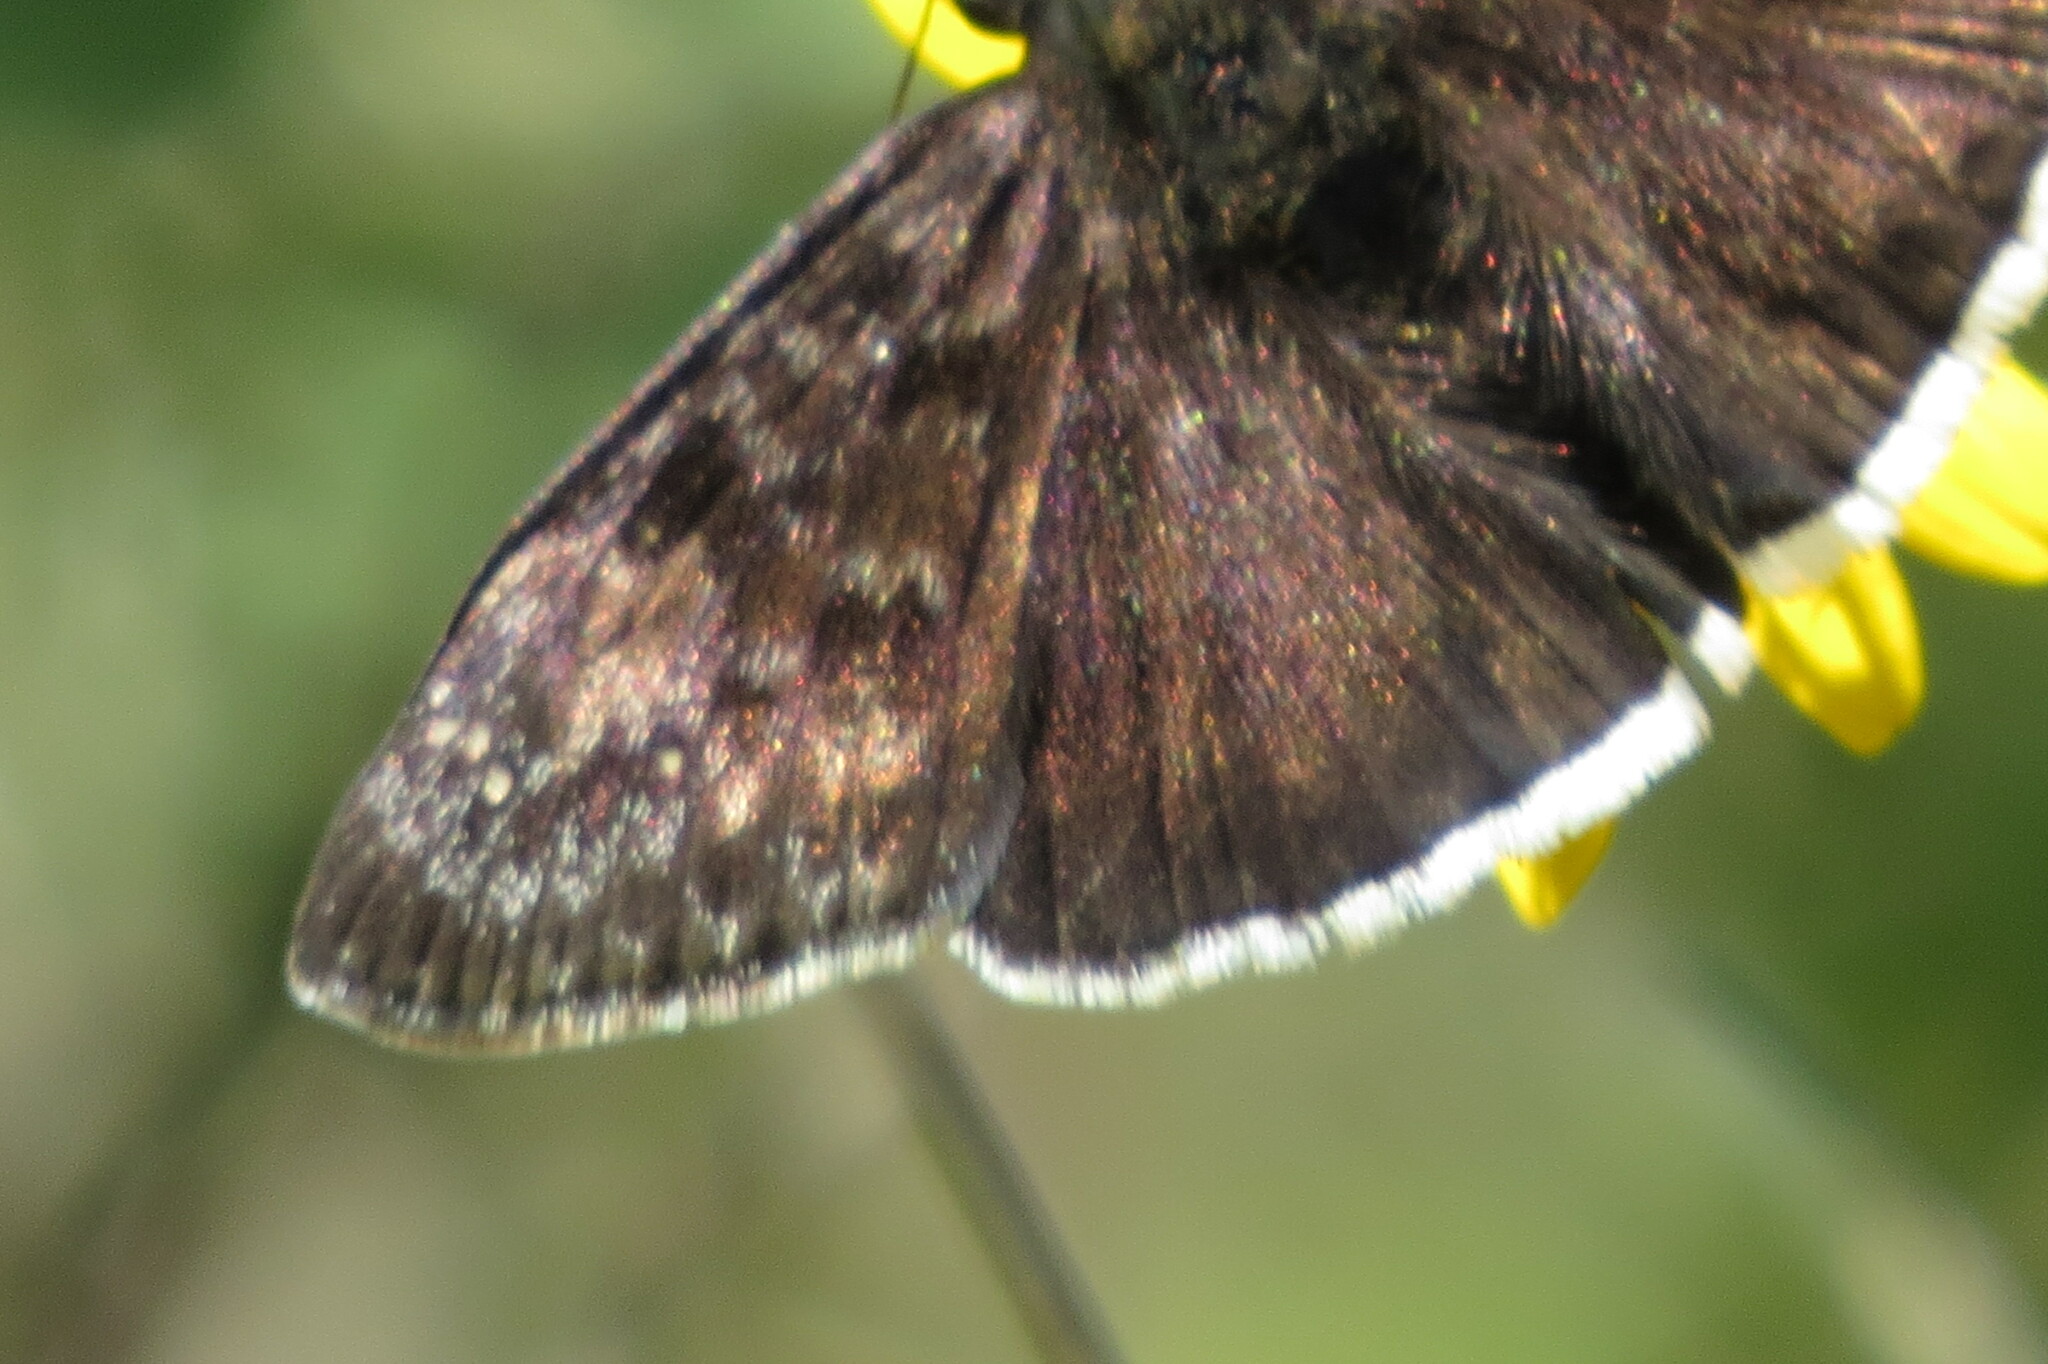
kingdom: Animalia
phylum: Arthropoda
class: Insecta
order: Lepidoptera
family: Hesperiidae
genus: Erynnis
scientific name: Erynnis tristis
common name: Mournful duskywing
